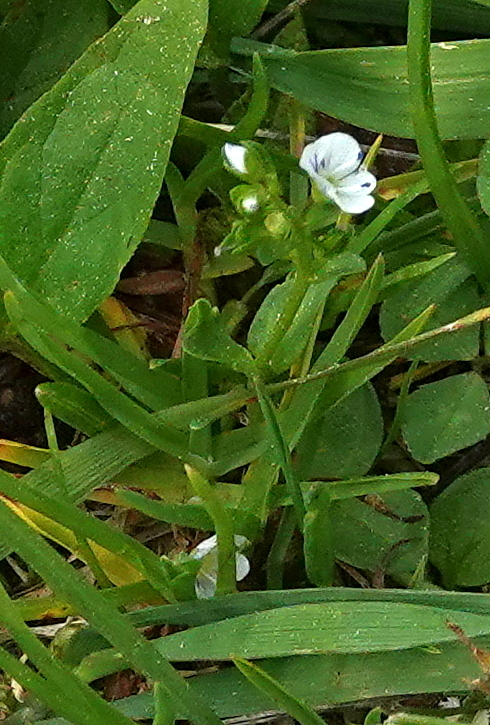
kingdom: Plantae
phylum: Tracheophyta
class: Magnoliopsida
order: Lamiales
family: Plantaginaceae
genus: Veronica
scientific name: Veronica serpyllifolia
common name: Thyme-leaved speedwell
